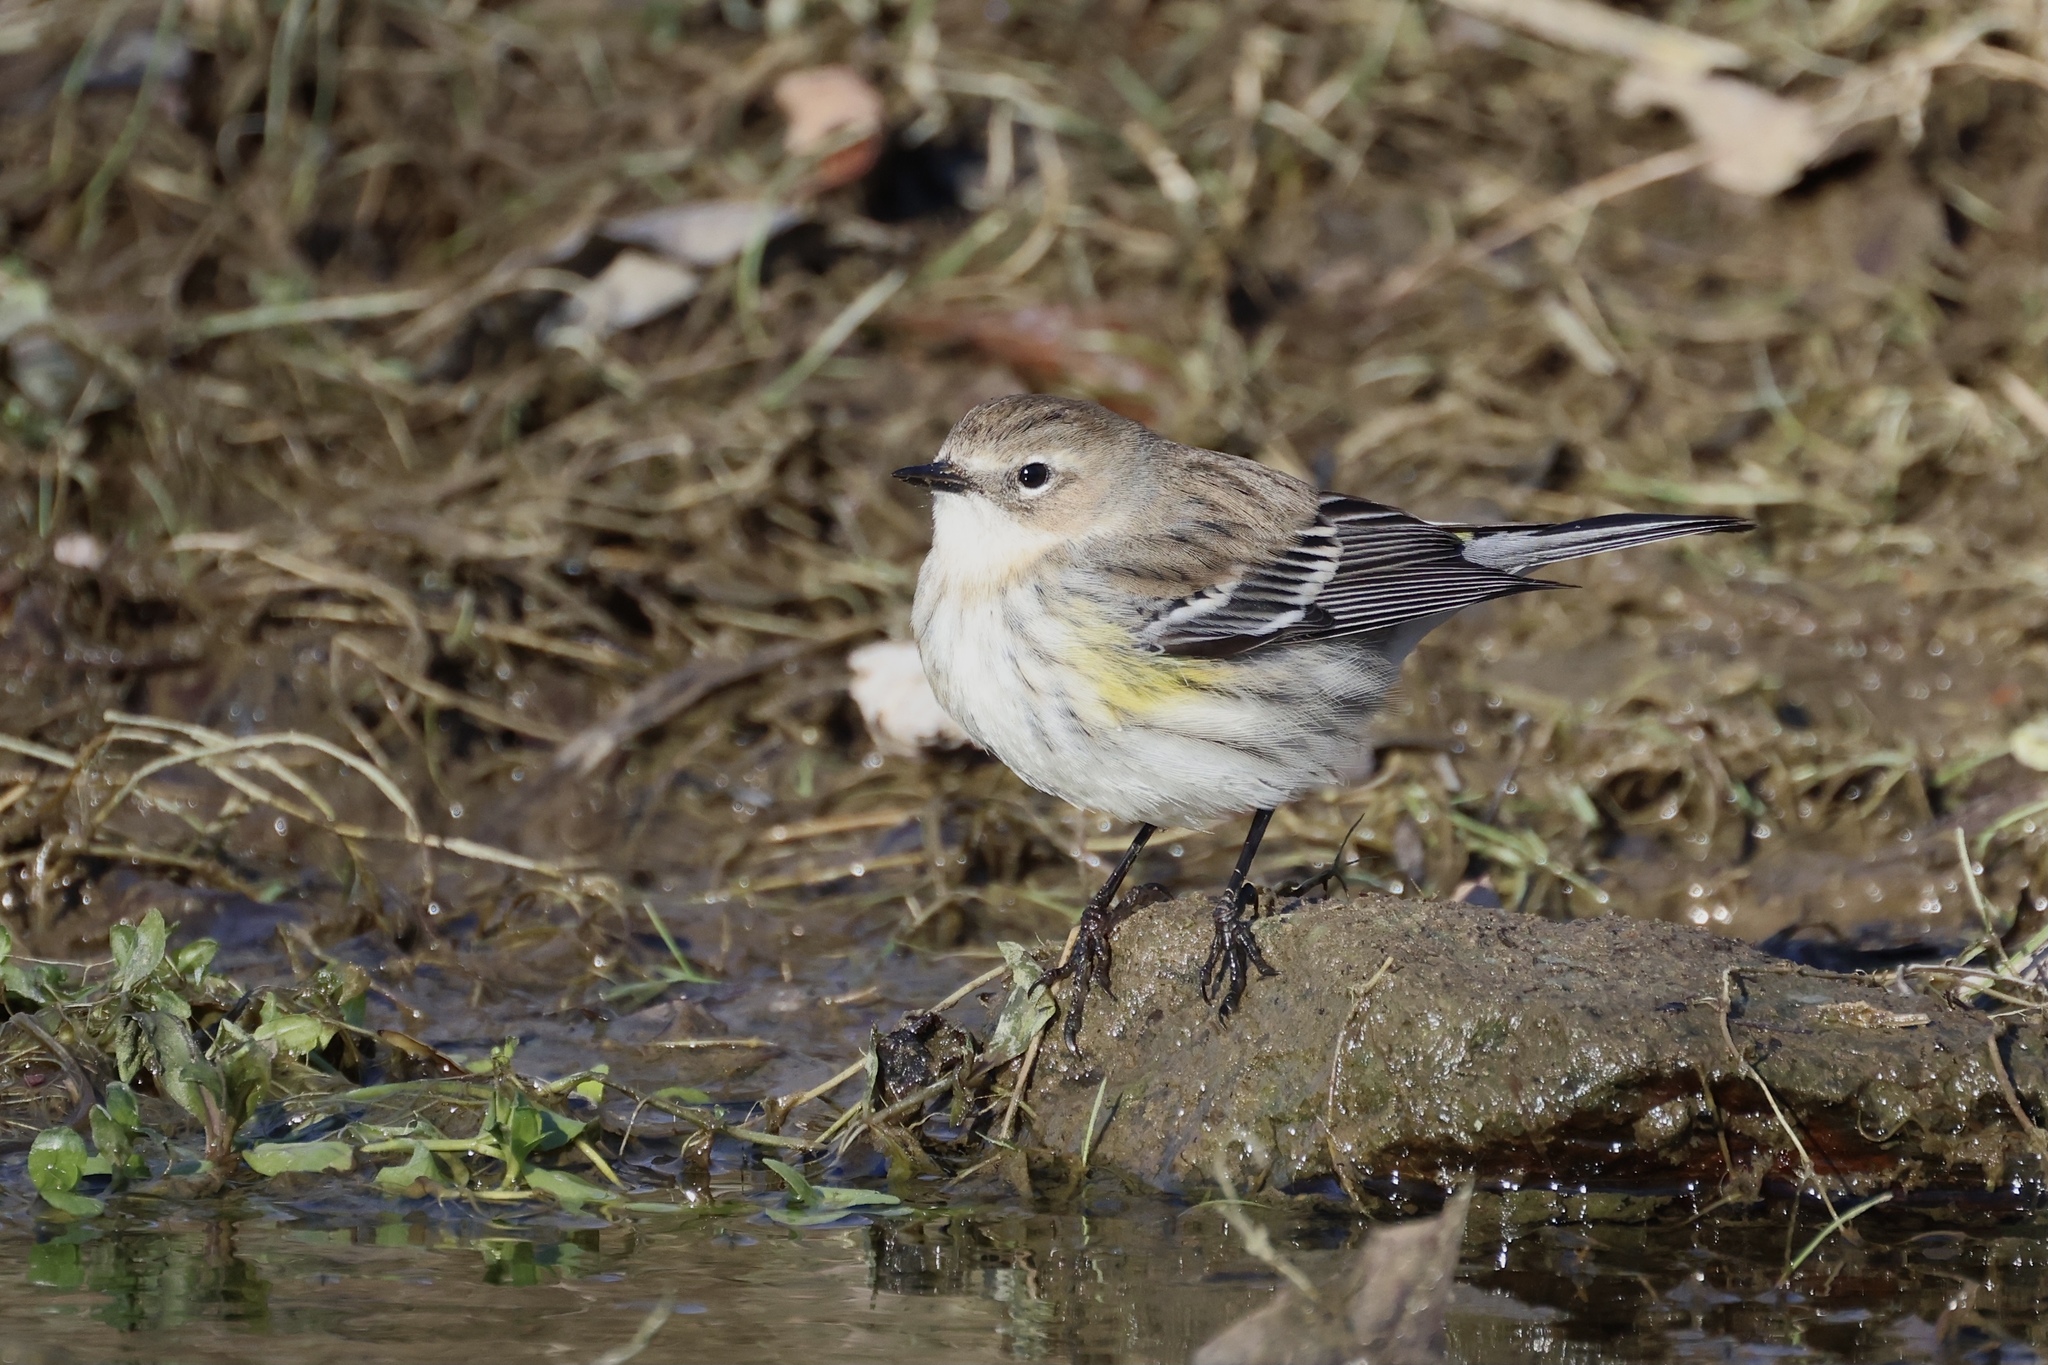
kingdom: Animalia
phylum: Chordata
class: Aves
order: Passeriformes
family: Parulidae
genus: Setophaga
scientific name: Setophaga coronata
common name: Myrtle warbler
